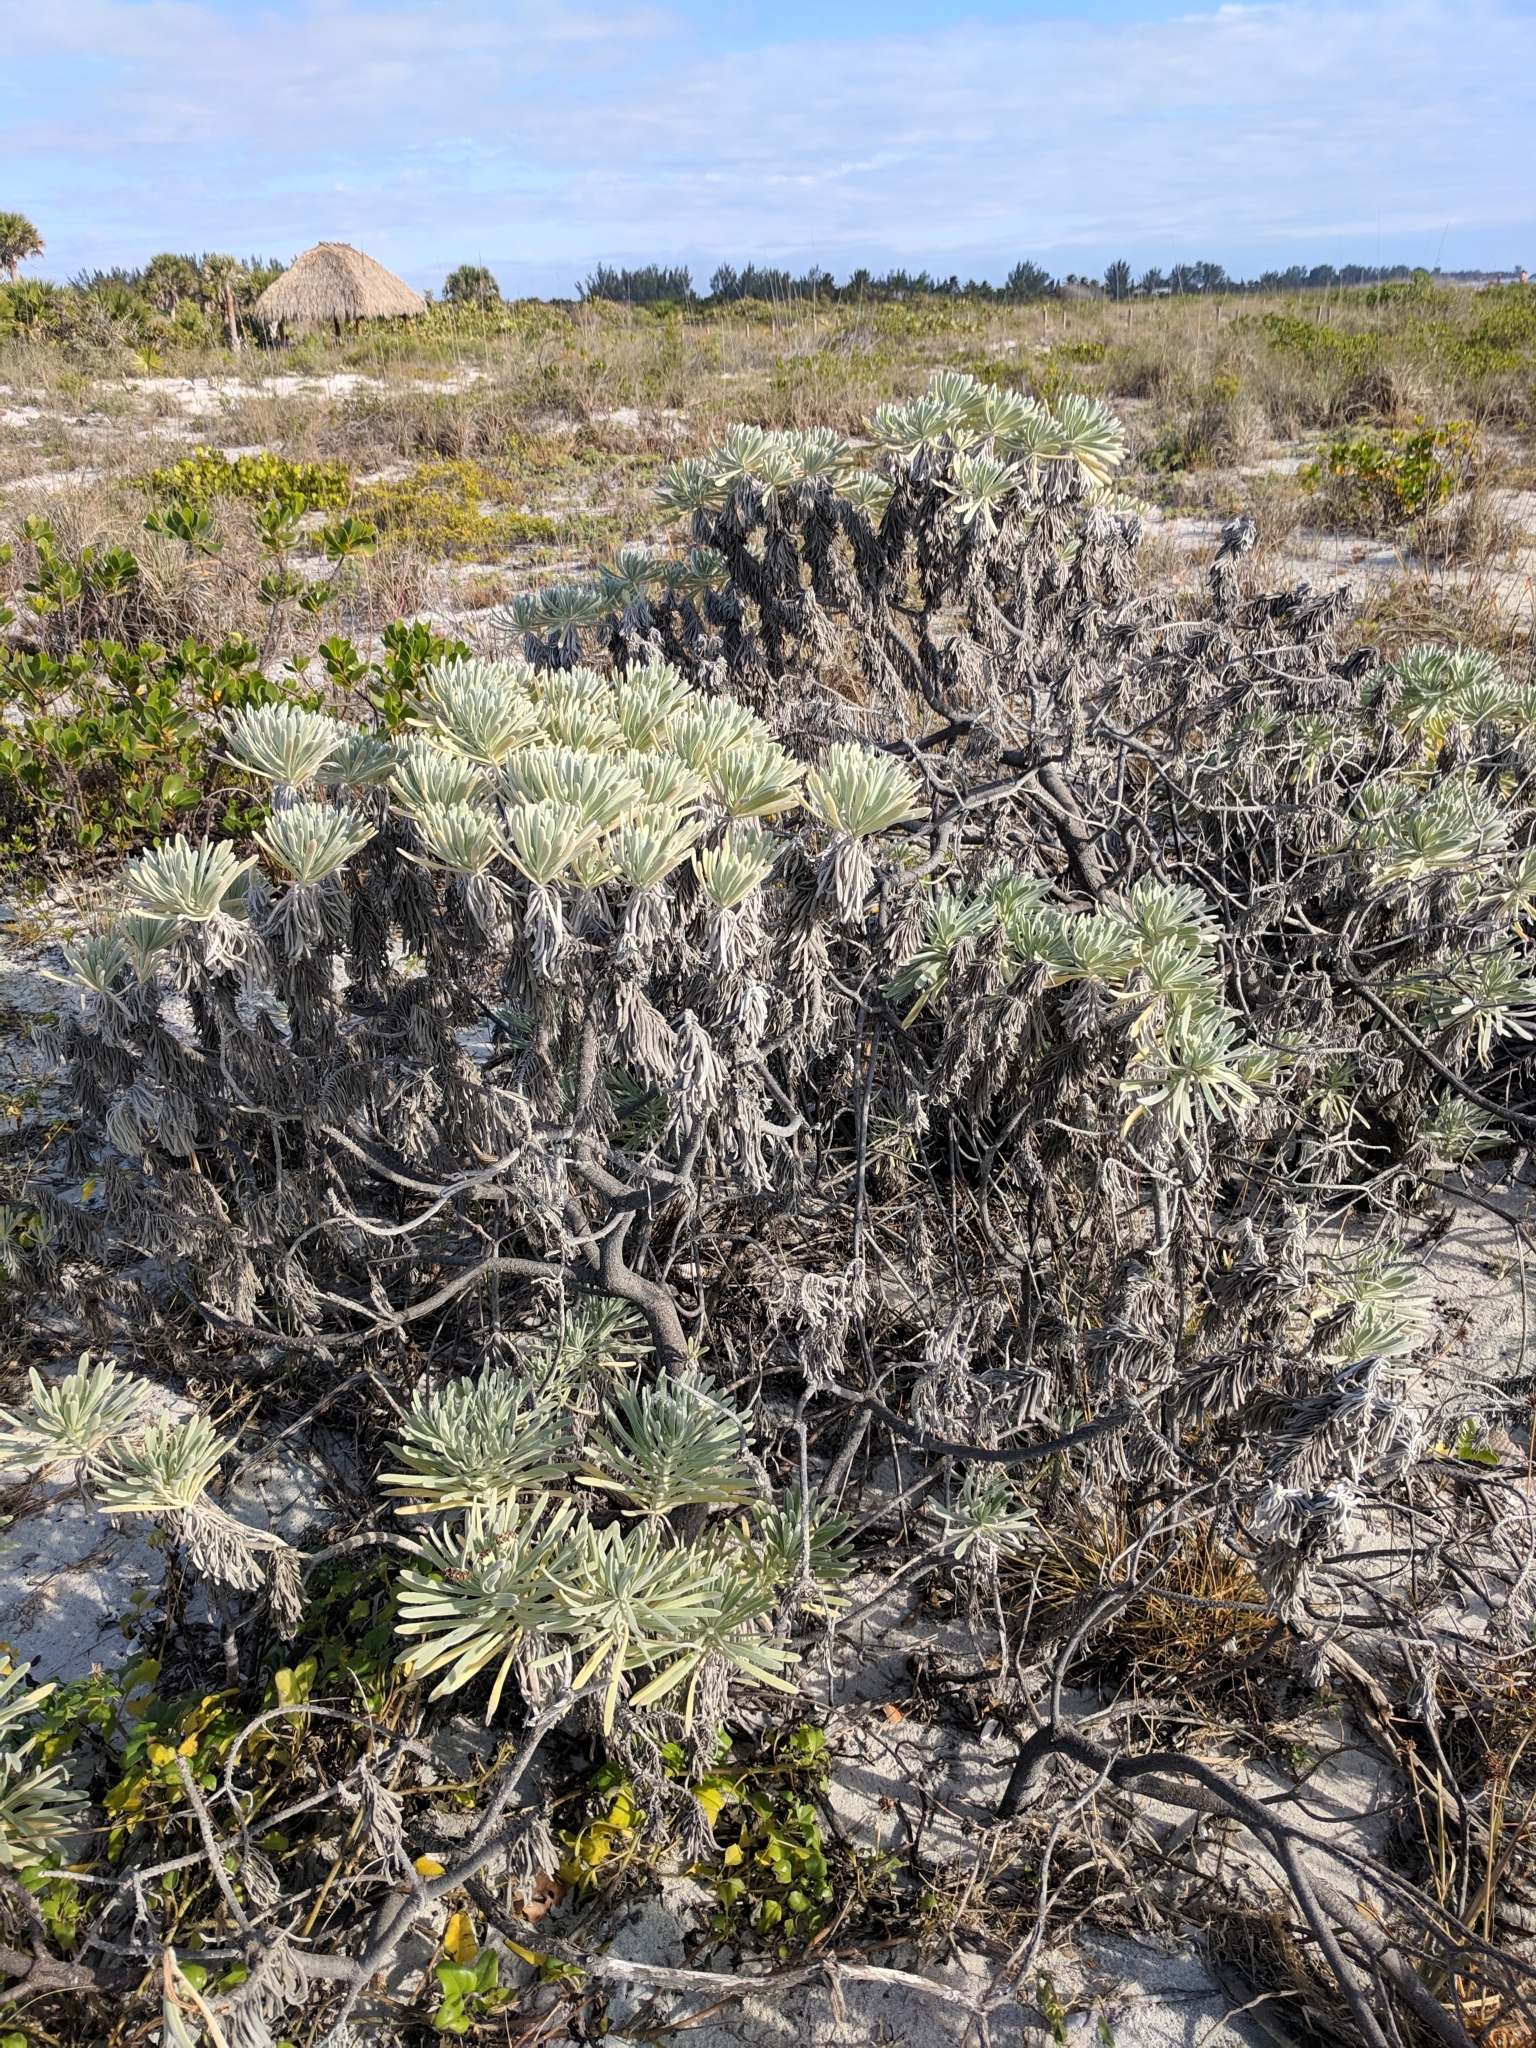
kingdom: Plantae
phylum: Tracheophyta
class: Magnoliopsida
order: Boraginales
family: Heliotropiaceae
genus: Tournefortia
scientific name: Tournefortia gnaphalodes
